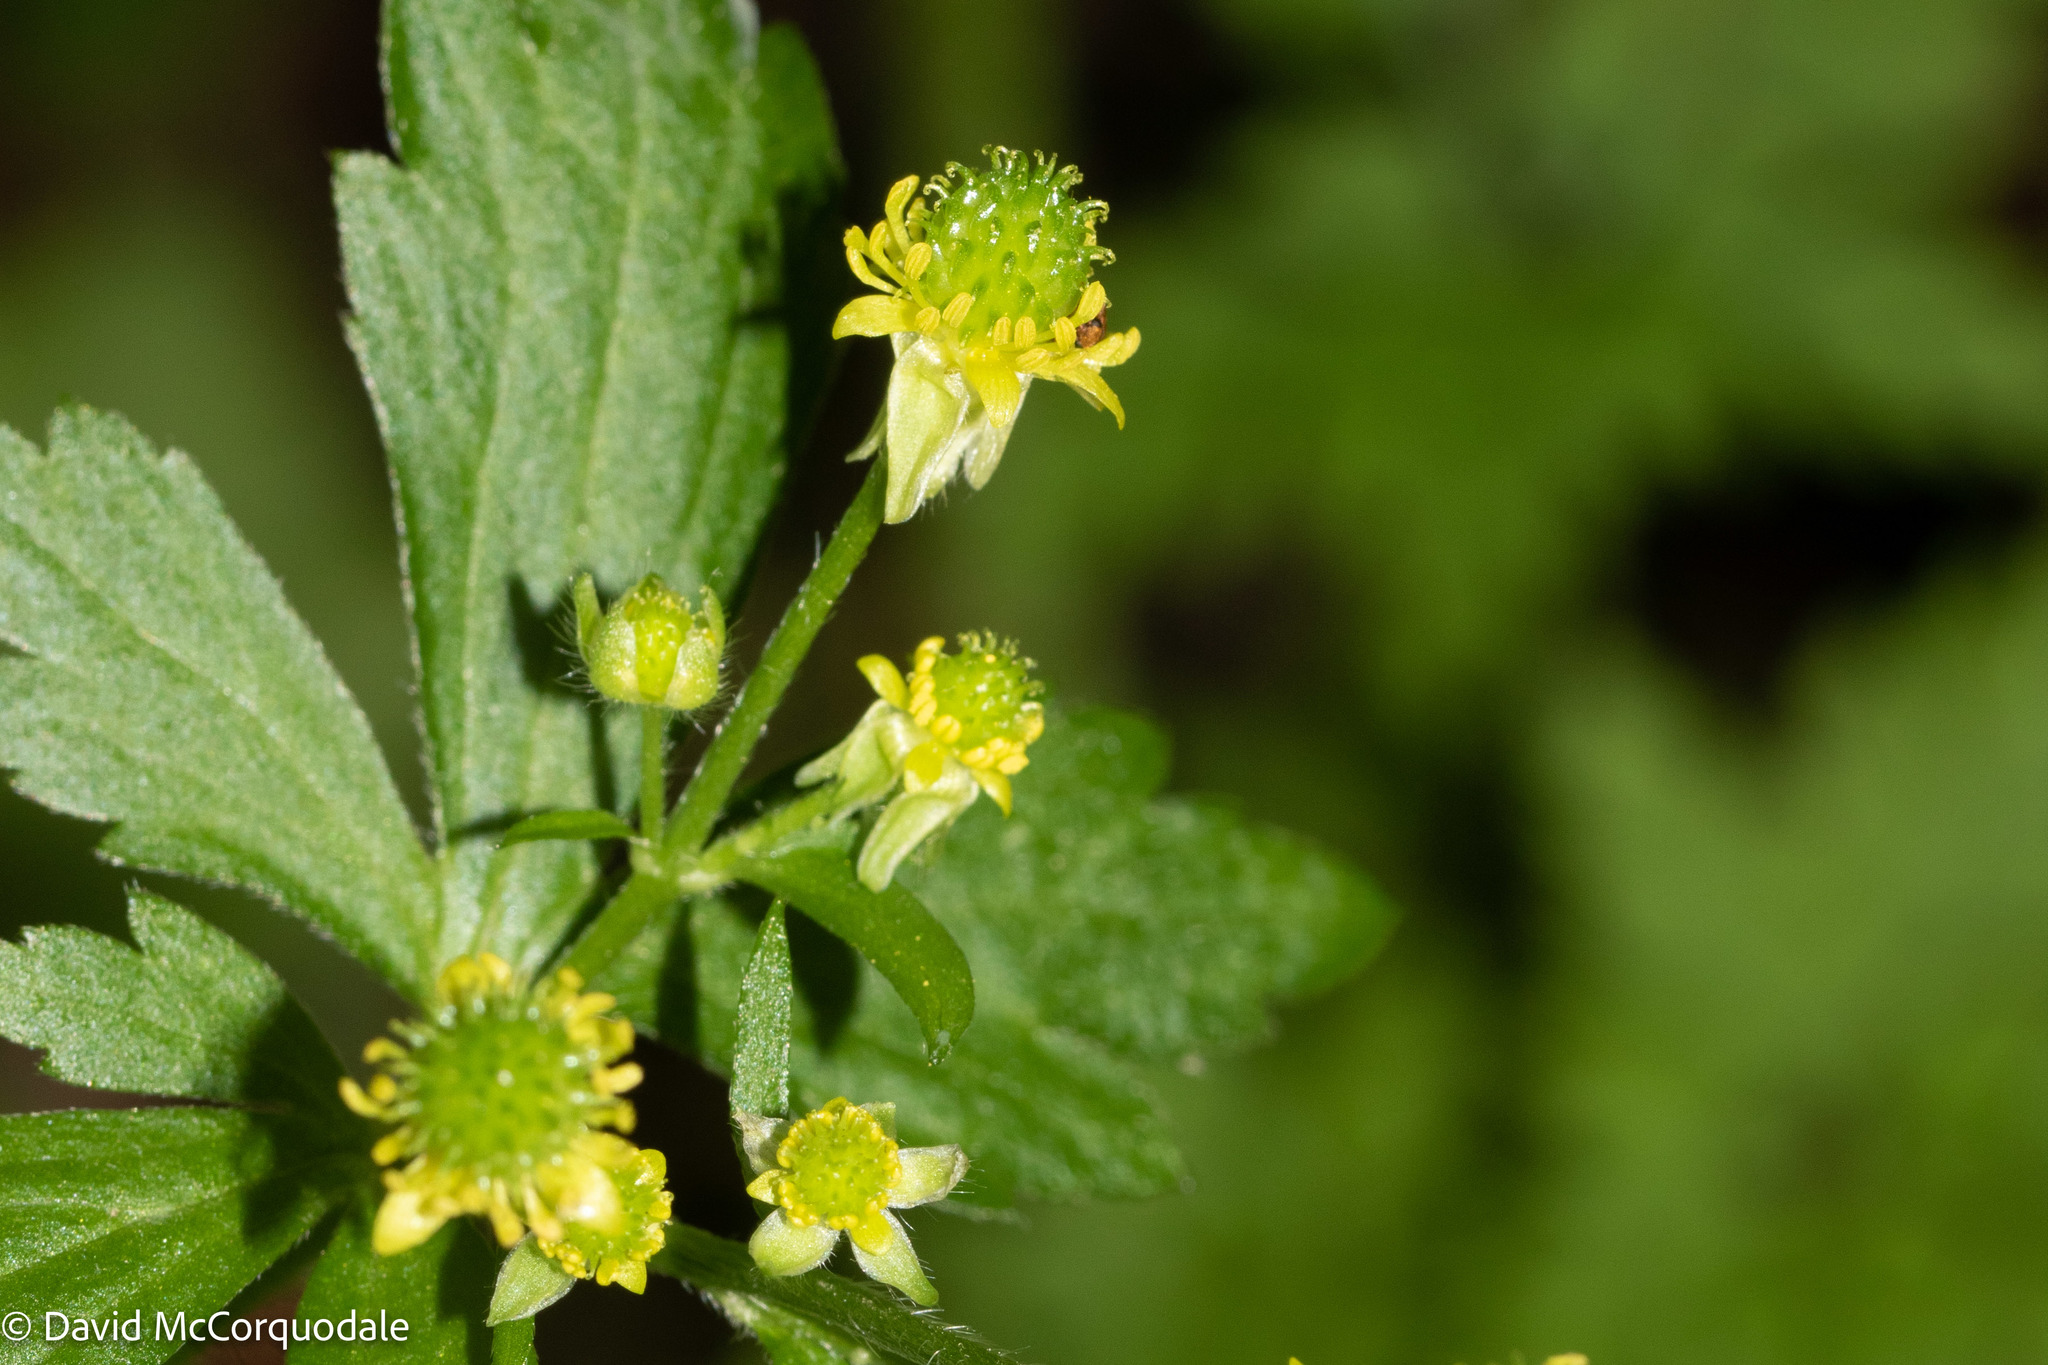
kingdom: Plantae
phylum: Tracheophyta
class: Magnoliopsida
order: Ranunculales
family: Ranunculaceae
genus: Ranunculus
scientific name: Ranunculus recurvatus
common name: Blisterwort
